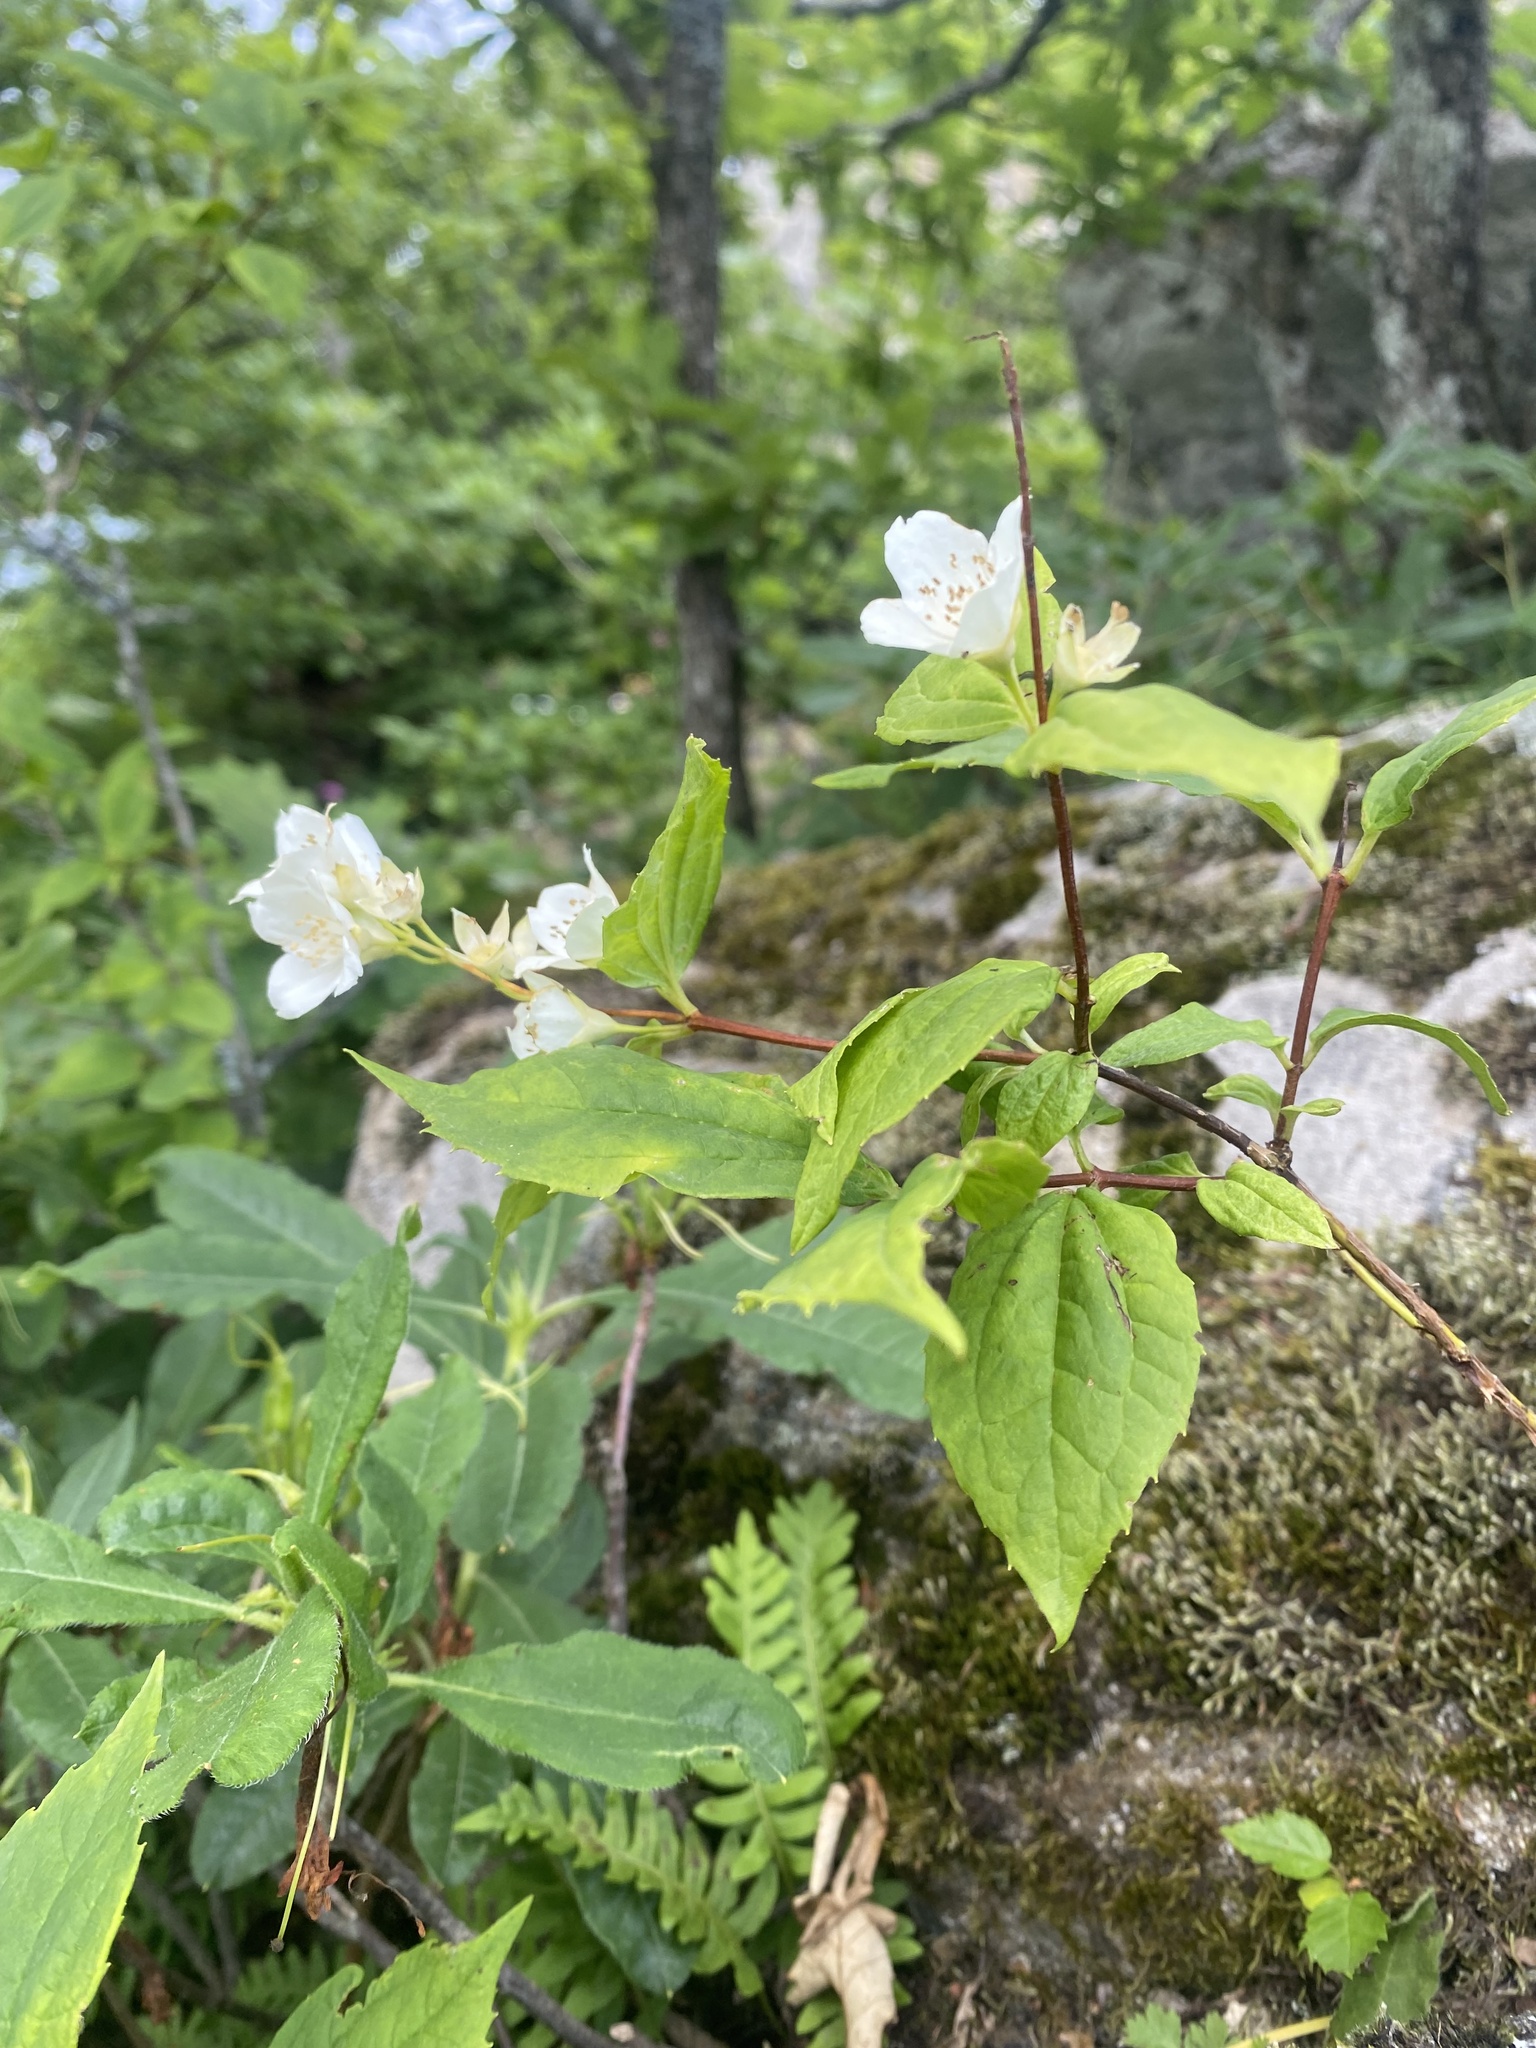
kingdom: Plantae
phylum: Tracheophyta
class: Magnoliopsida
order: Cornales
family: Hydrangeaceae
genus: Philadelphus
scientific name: Philadelphus coronarius
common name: Mock orange
